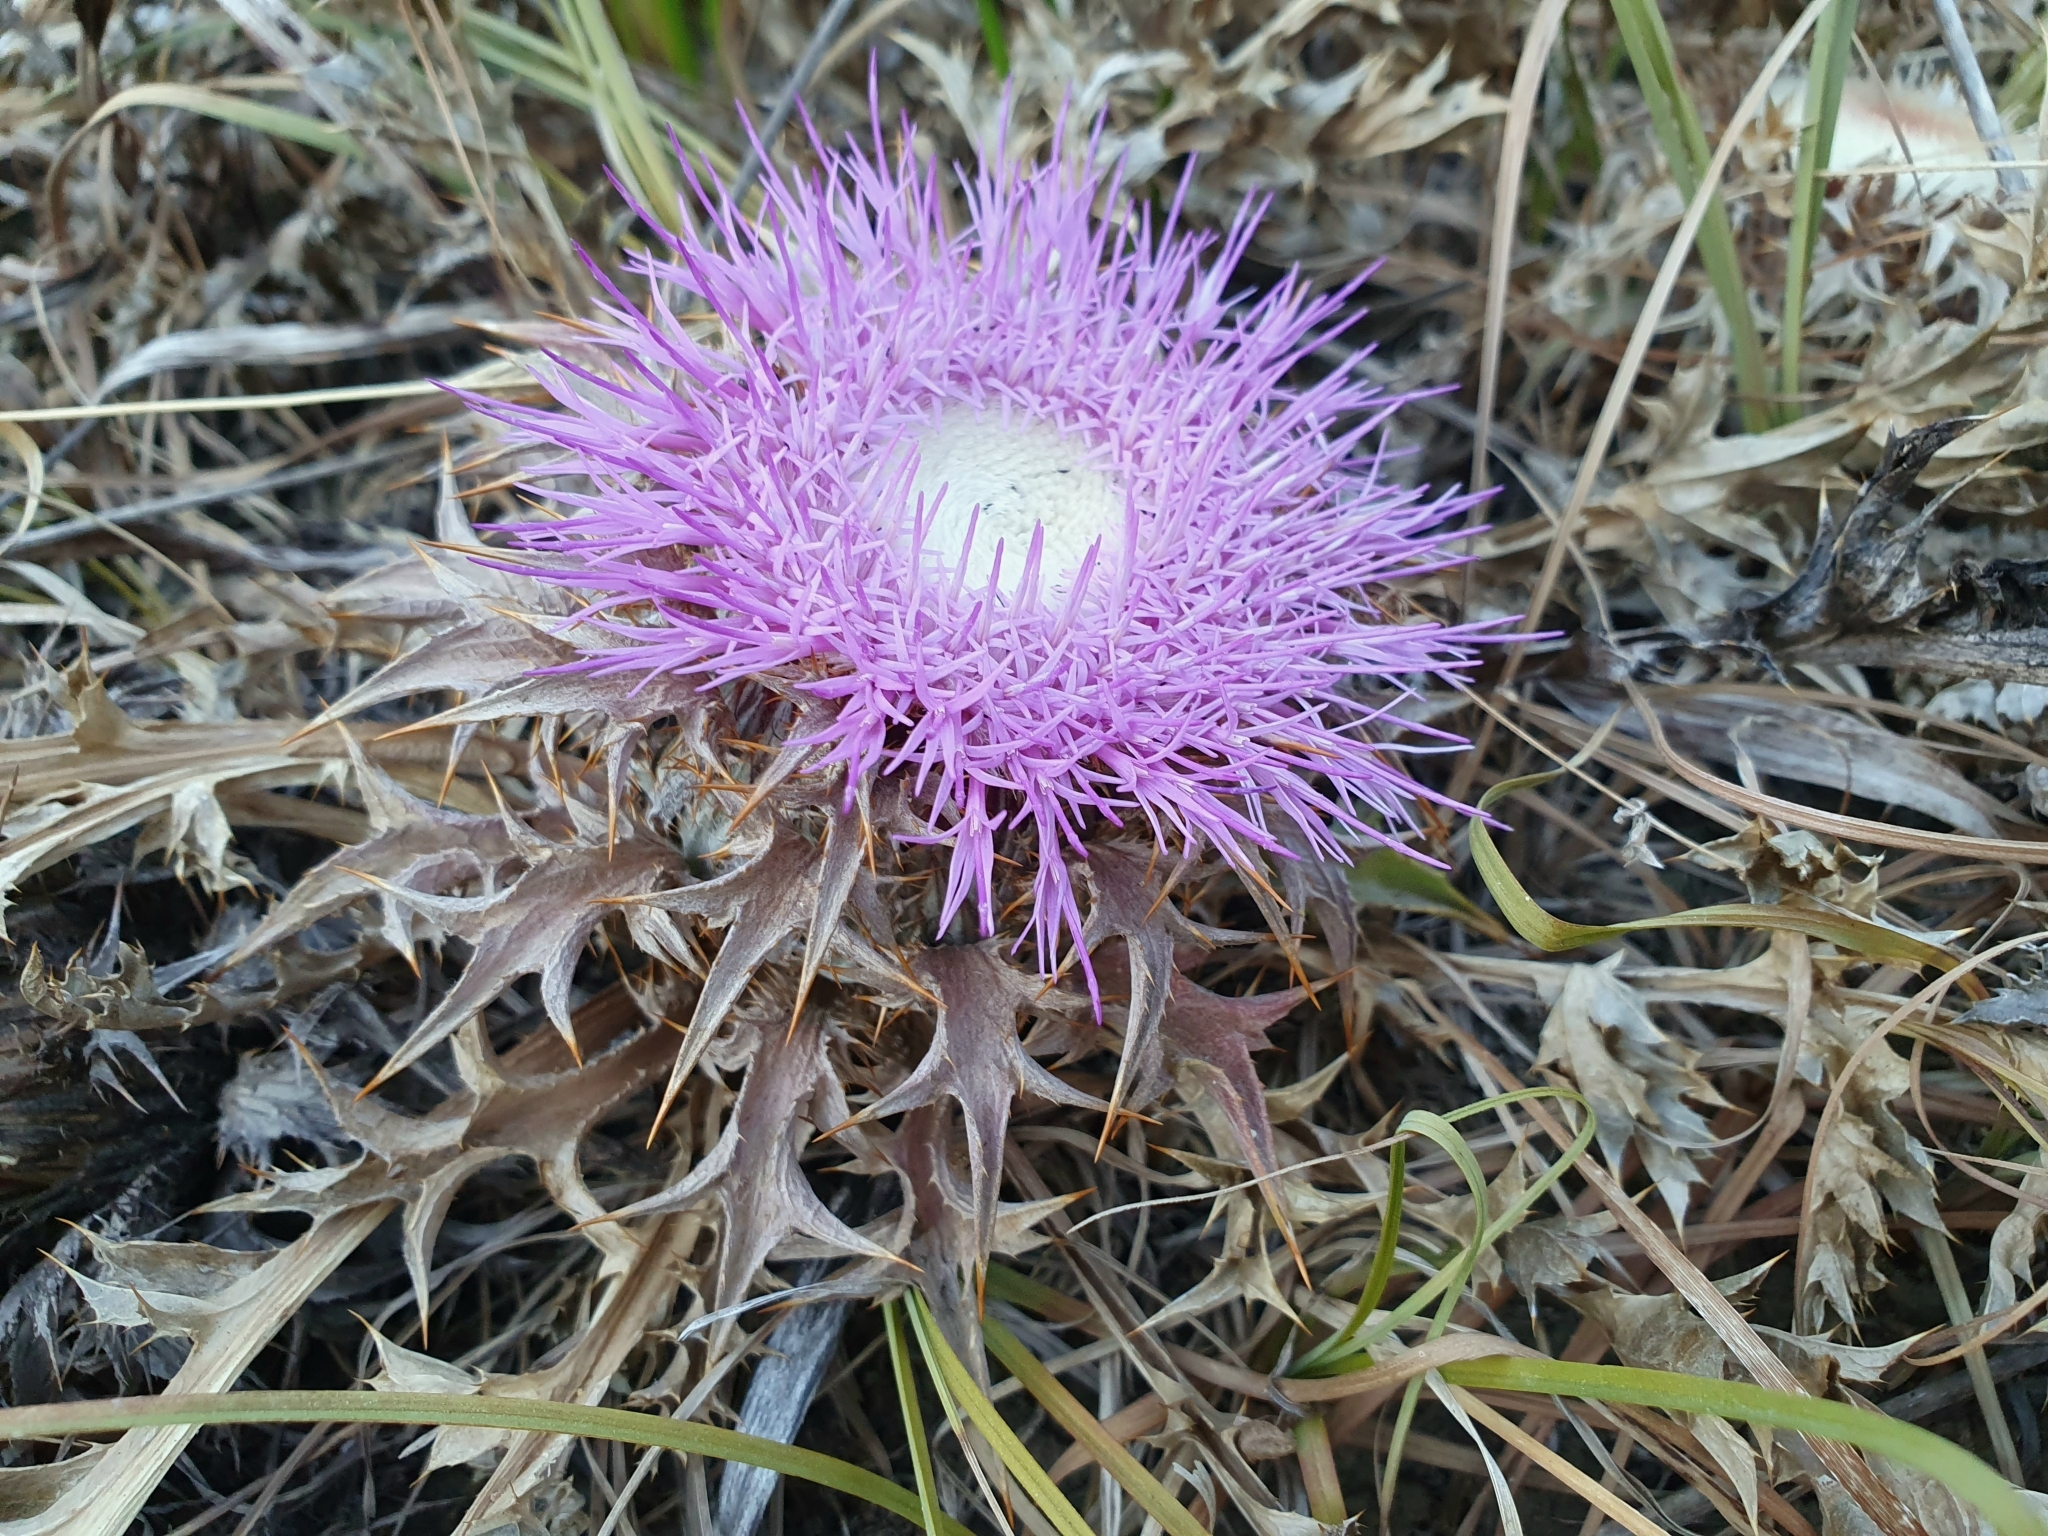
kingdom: Plantae
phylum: Tracheophyta
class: Magnoliopsida
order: Asterales
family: Asteraceae
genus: Chamaeleon
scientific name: Chamaeleon gummifer
